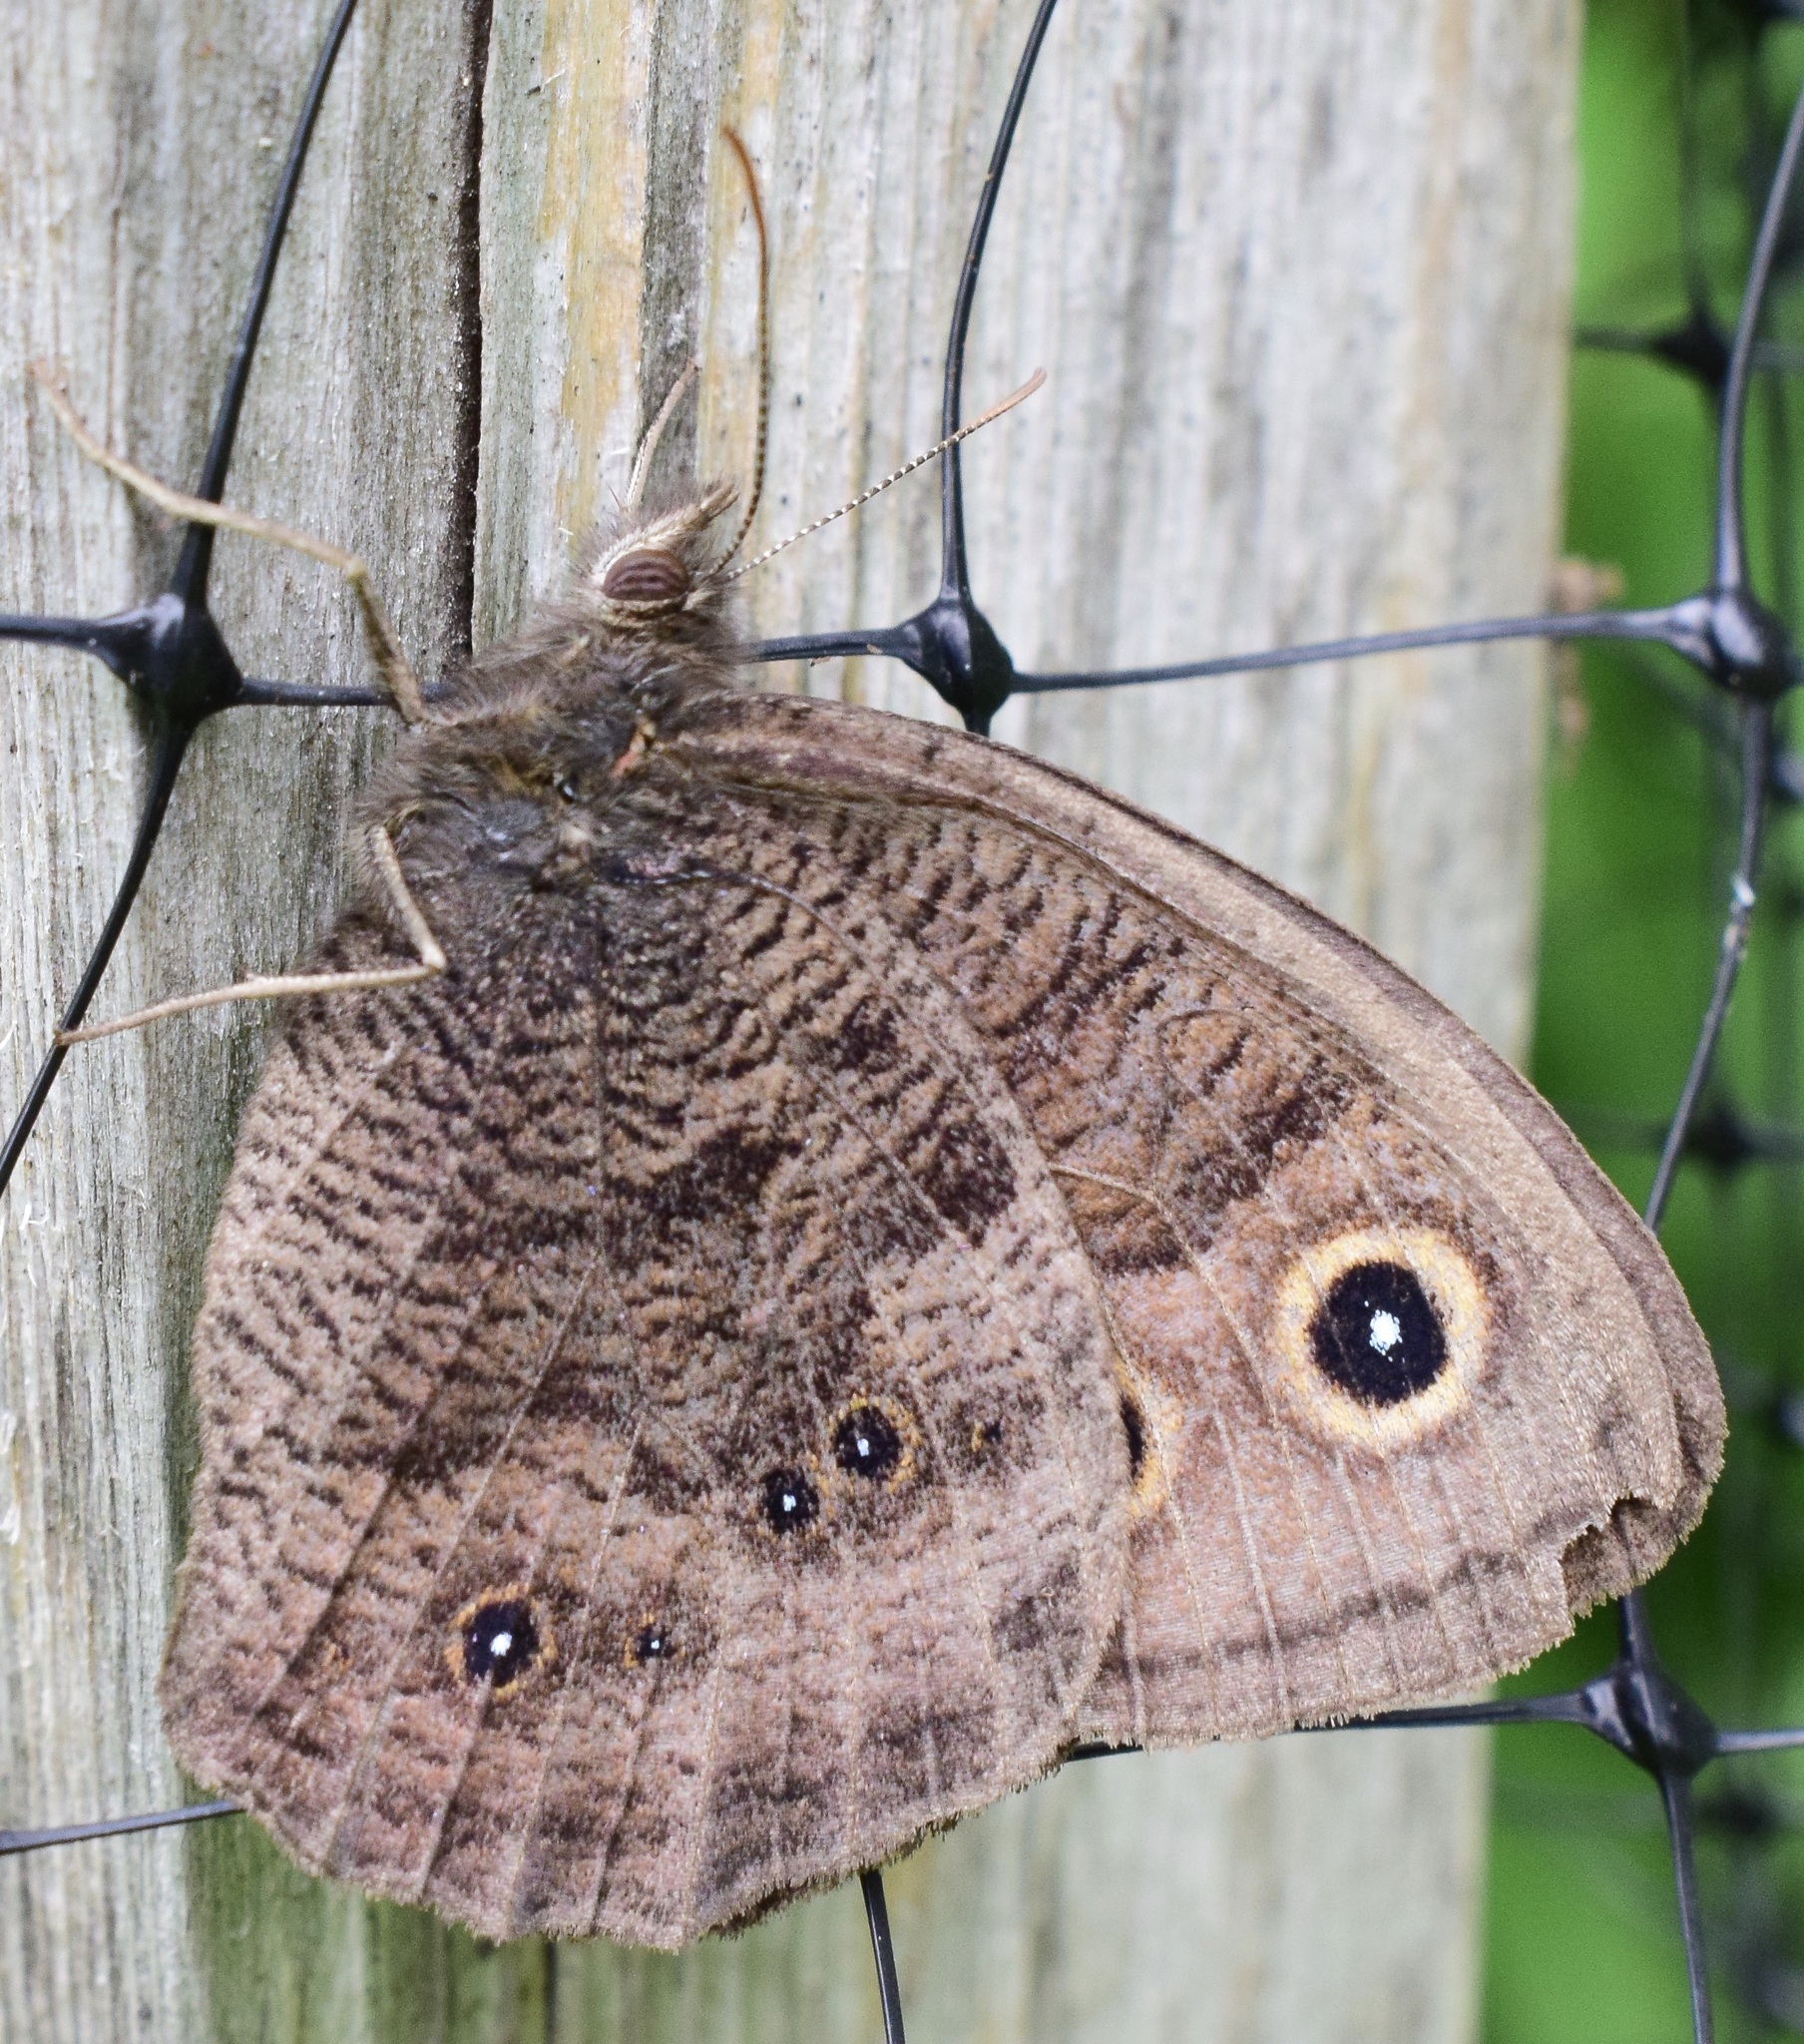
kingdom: Animalia
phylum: Arthropoda
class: Insecta
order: Lepidoptera
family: Nymphalidae
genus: Cercyonis
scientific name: Cercyonis pegala
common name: Common wood-nymph
